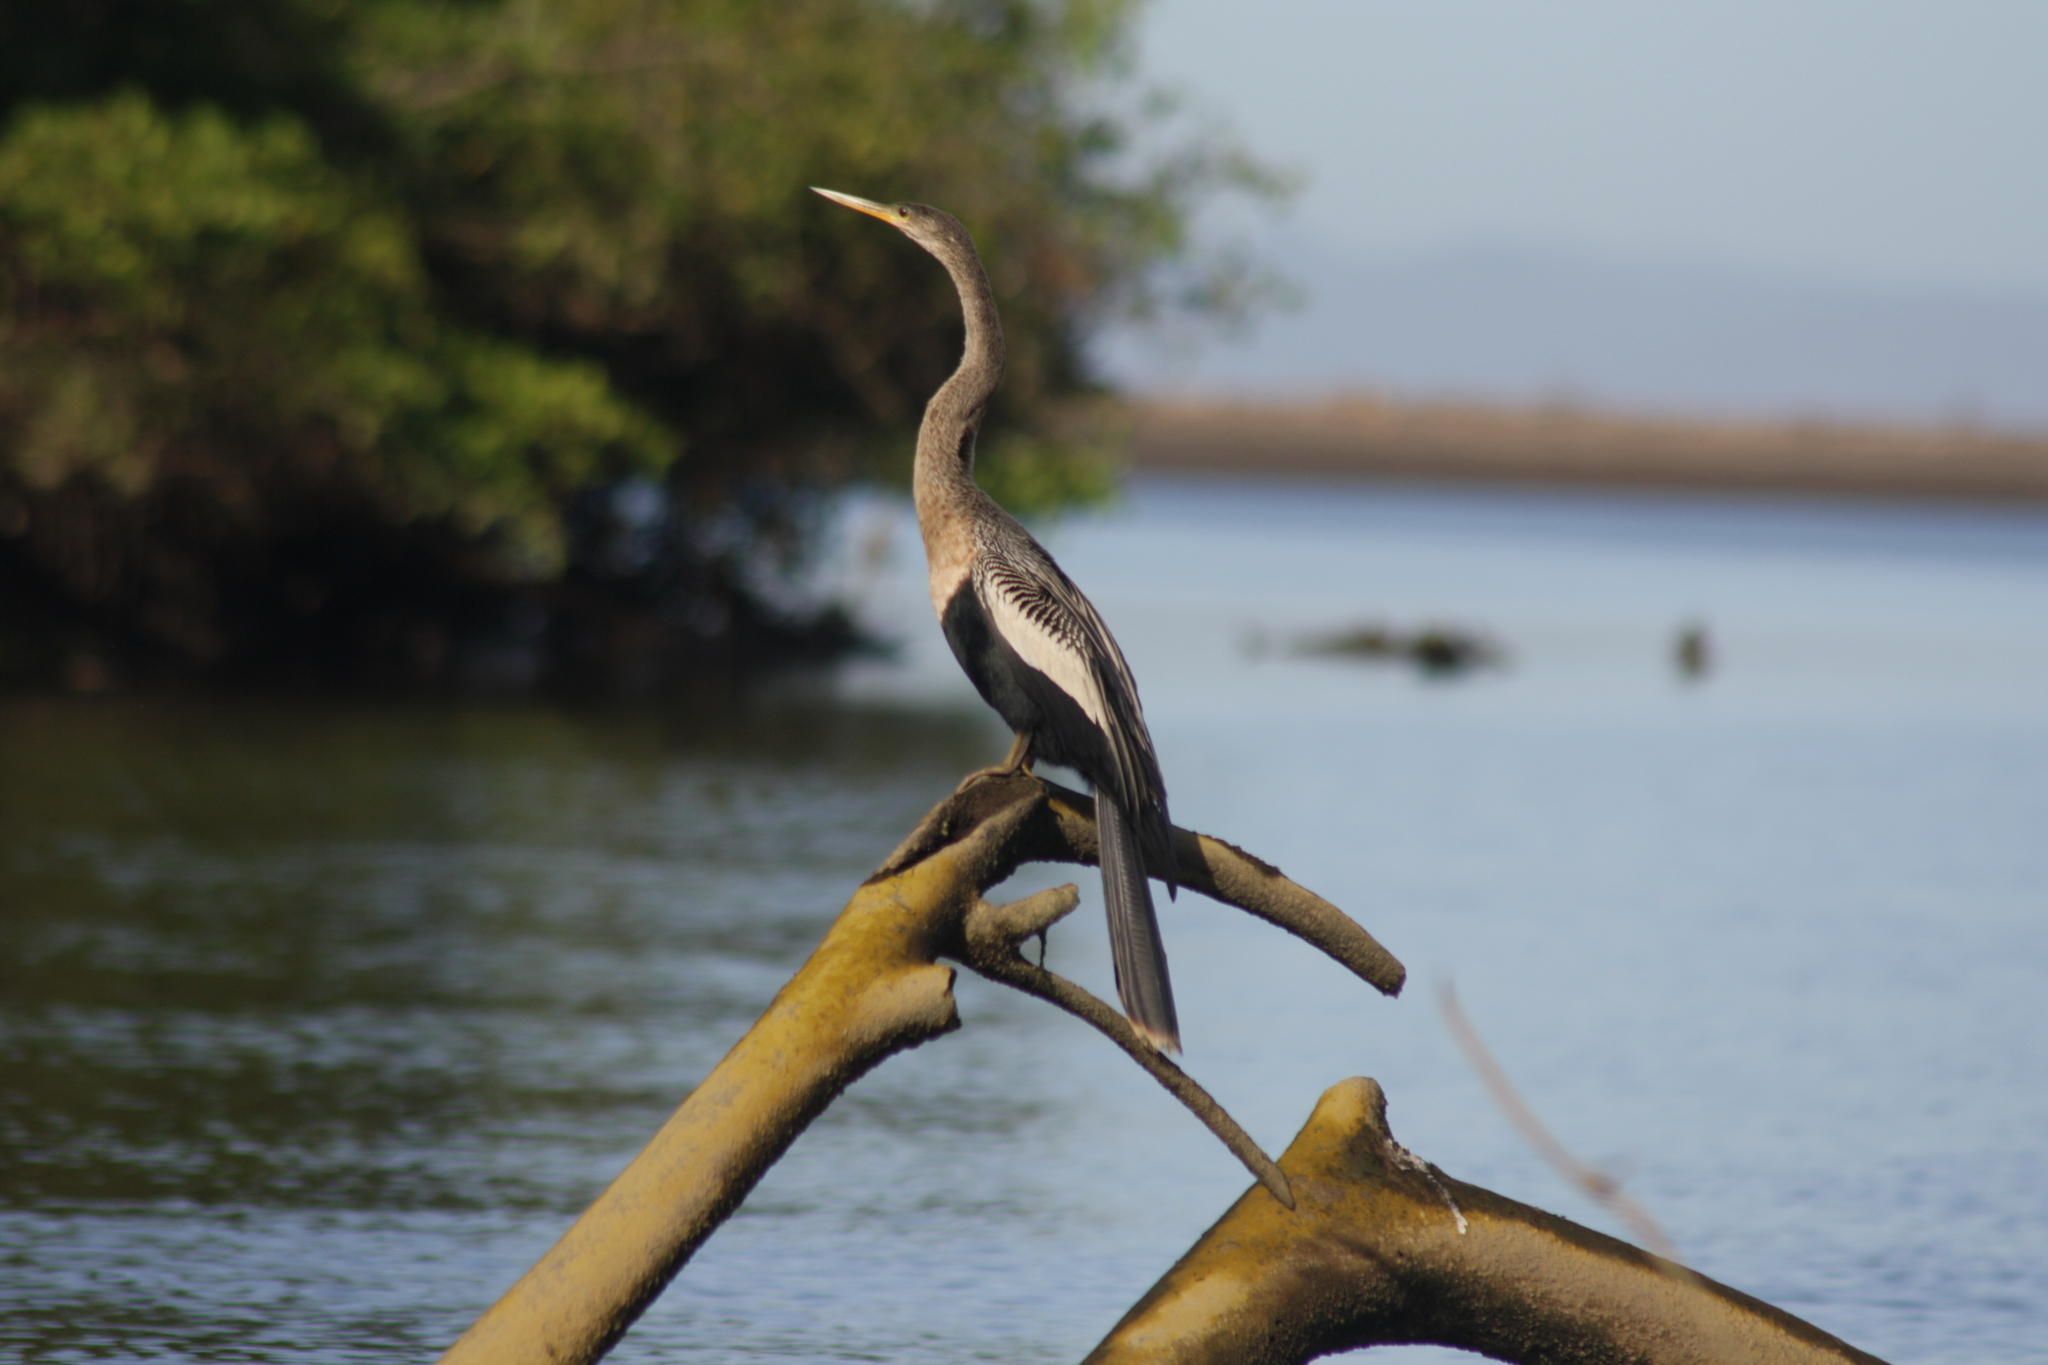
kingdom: Animalia
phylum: Chordata
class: Aves
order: Suliformes
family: Anhingidae
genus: Anhinga
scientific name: Anhinga anhinga
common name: Anhinga
